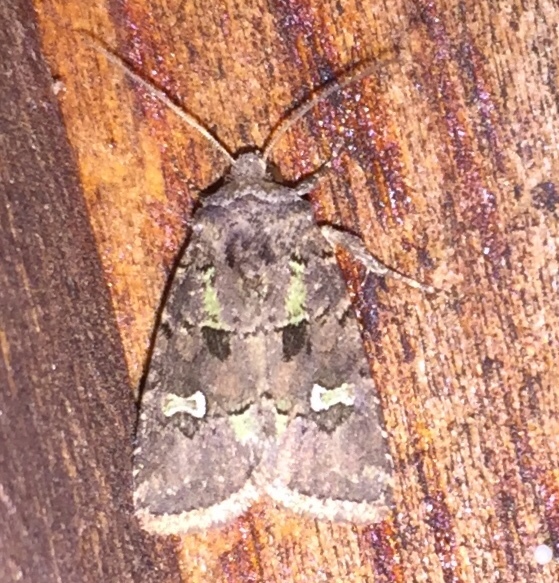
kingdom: Animalia
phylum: Arthropoda
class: Insecta
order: Lepidoptera
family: Noctuidae
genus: Lacinipolia
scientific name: Lacinipolia renigera
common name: Kidney-spotted minor
